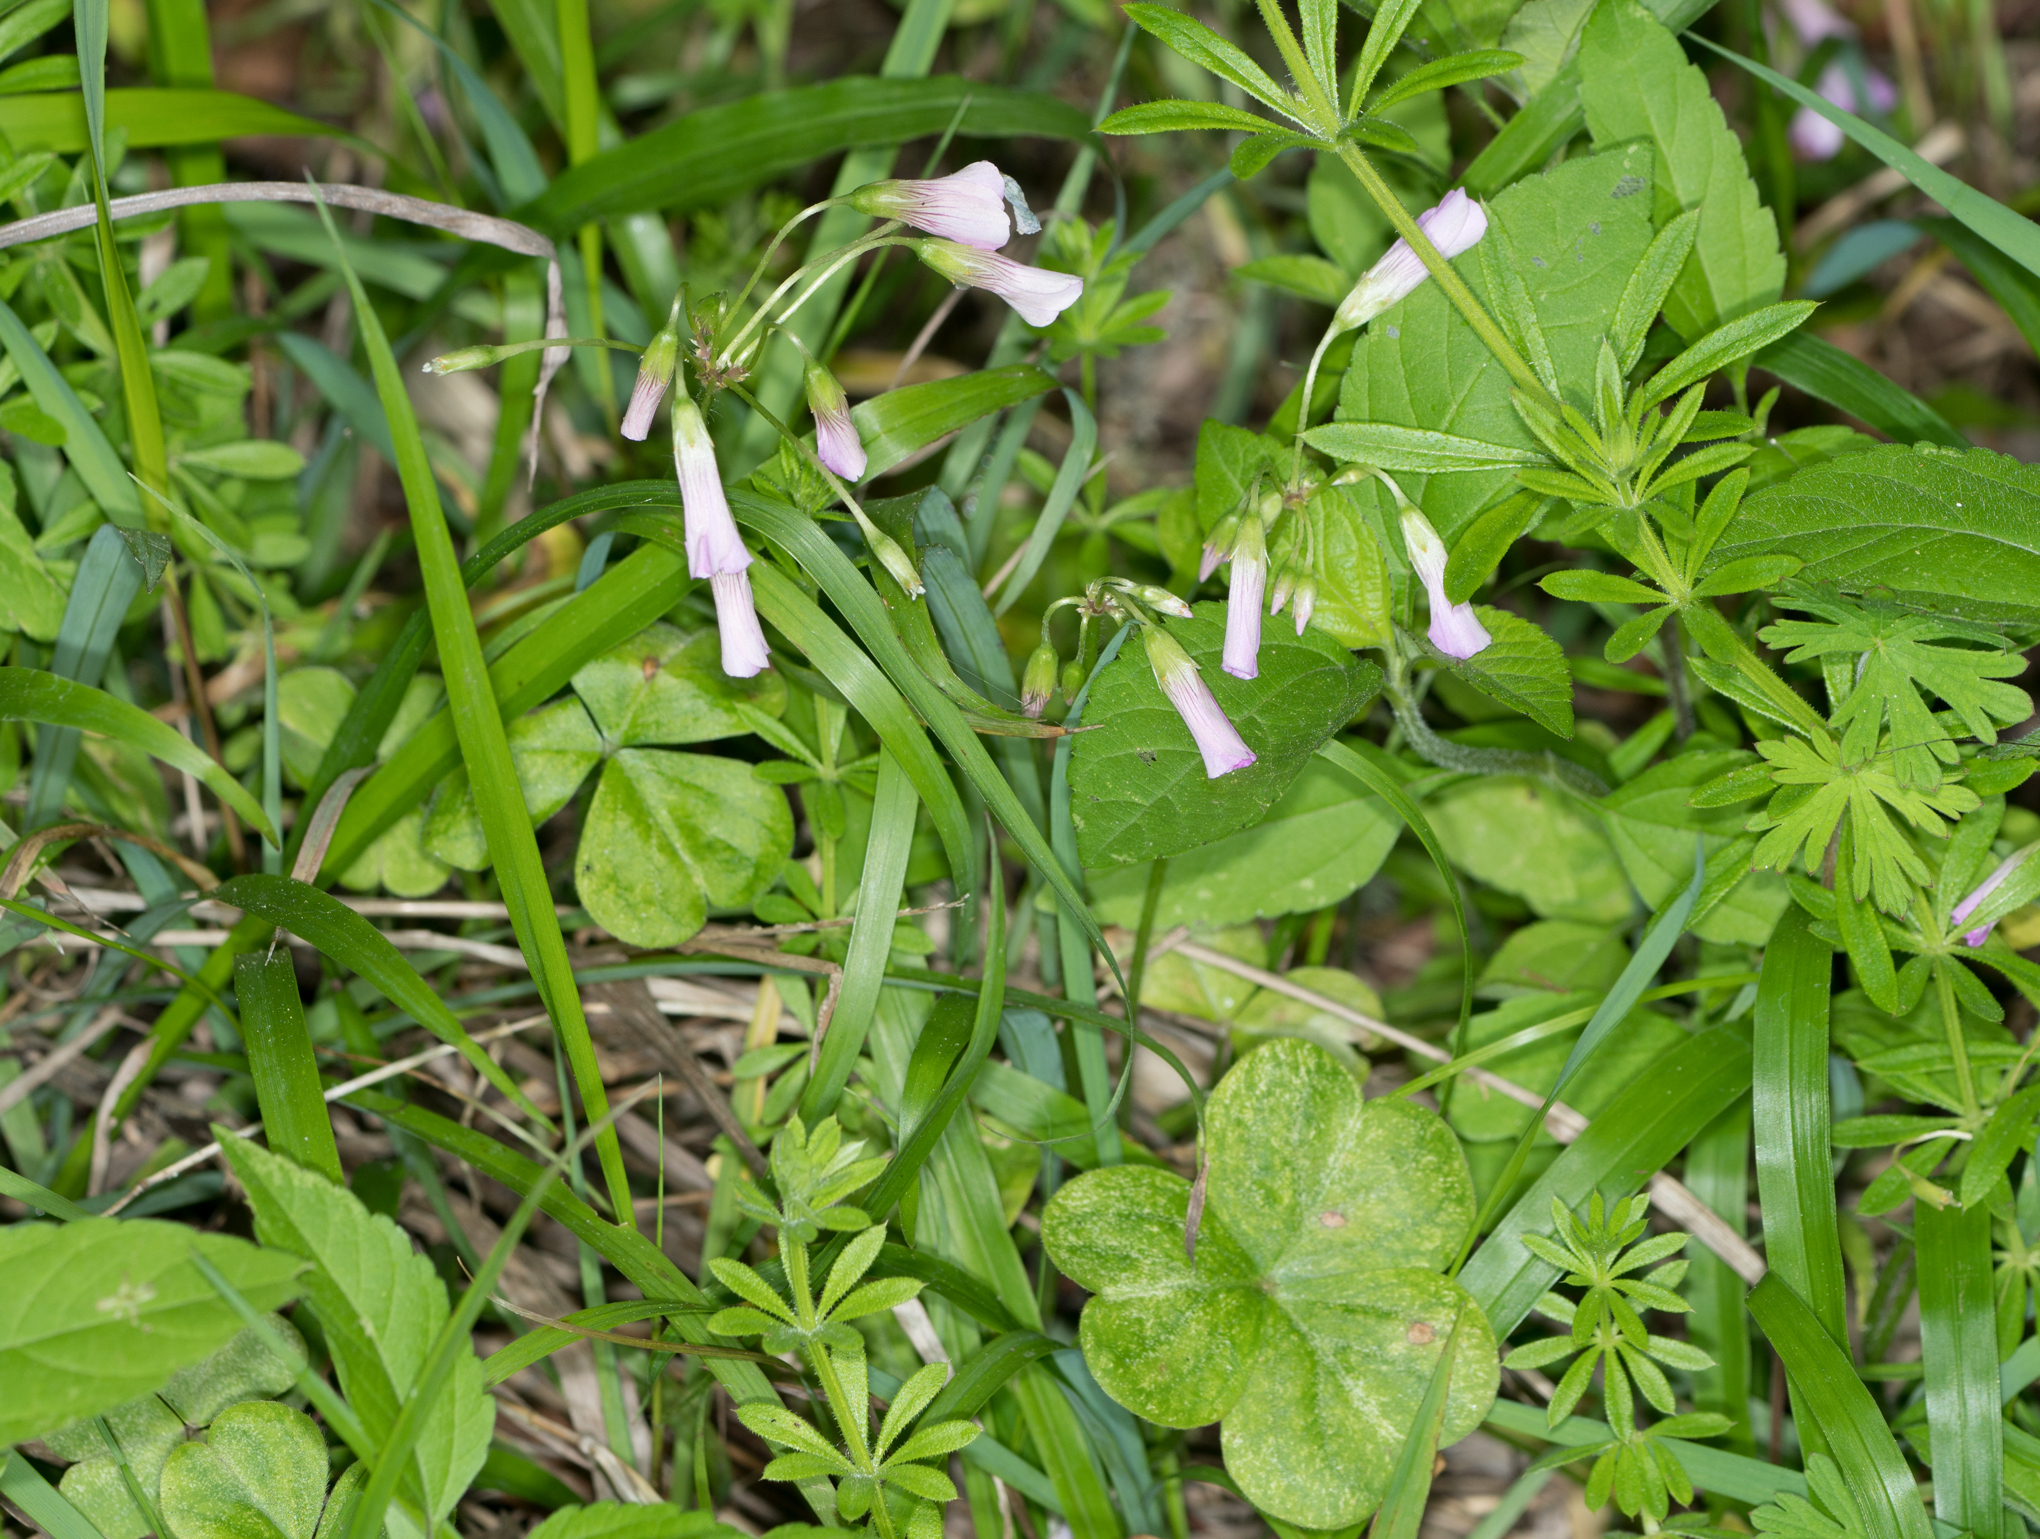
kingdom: Plantae
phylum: Tracheophyta
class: Magnoliopsida
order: Oxalidales
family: Oxalidaceae
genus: Oxalis
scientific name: Oxalis debilis
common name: Large-flowered pink-sorrel
